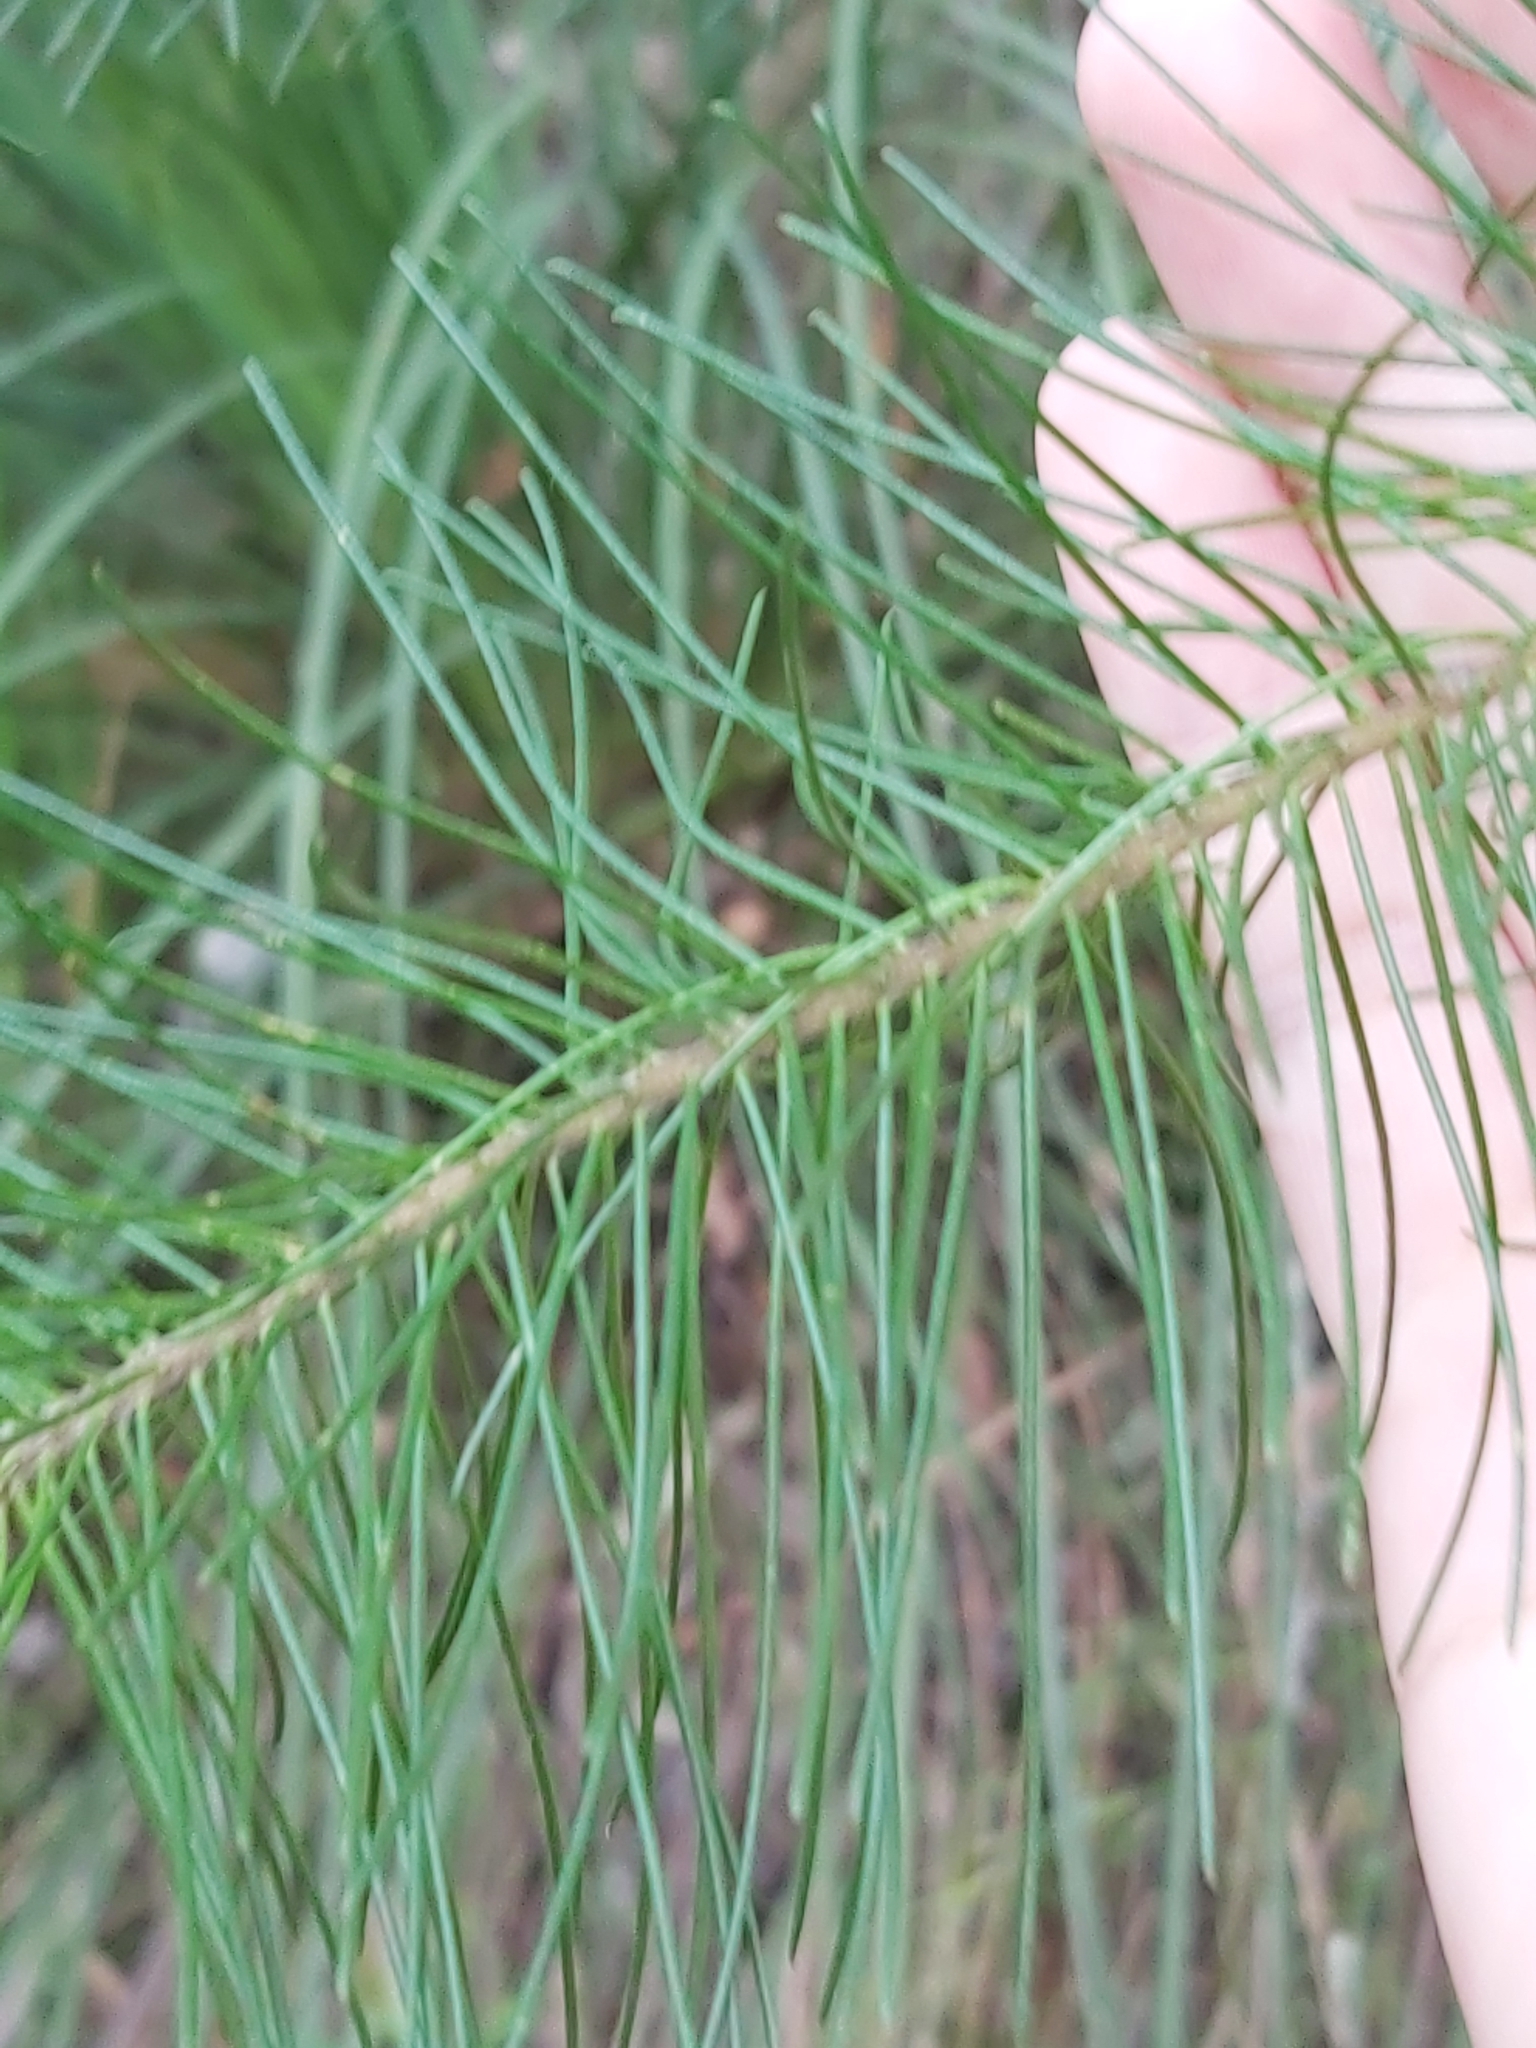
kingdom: Plantae
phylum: Tracheophyta
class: Magnoliopsida
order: Proteales
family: Proteaceae
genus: Persoonia
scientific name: Persoonia pinifolia
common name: Pine-leaf geebung
